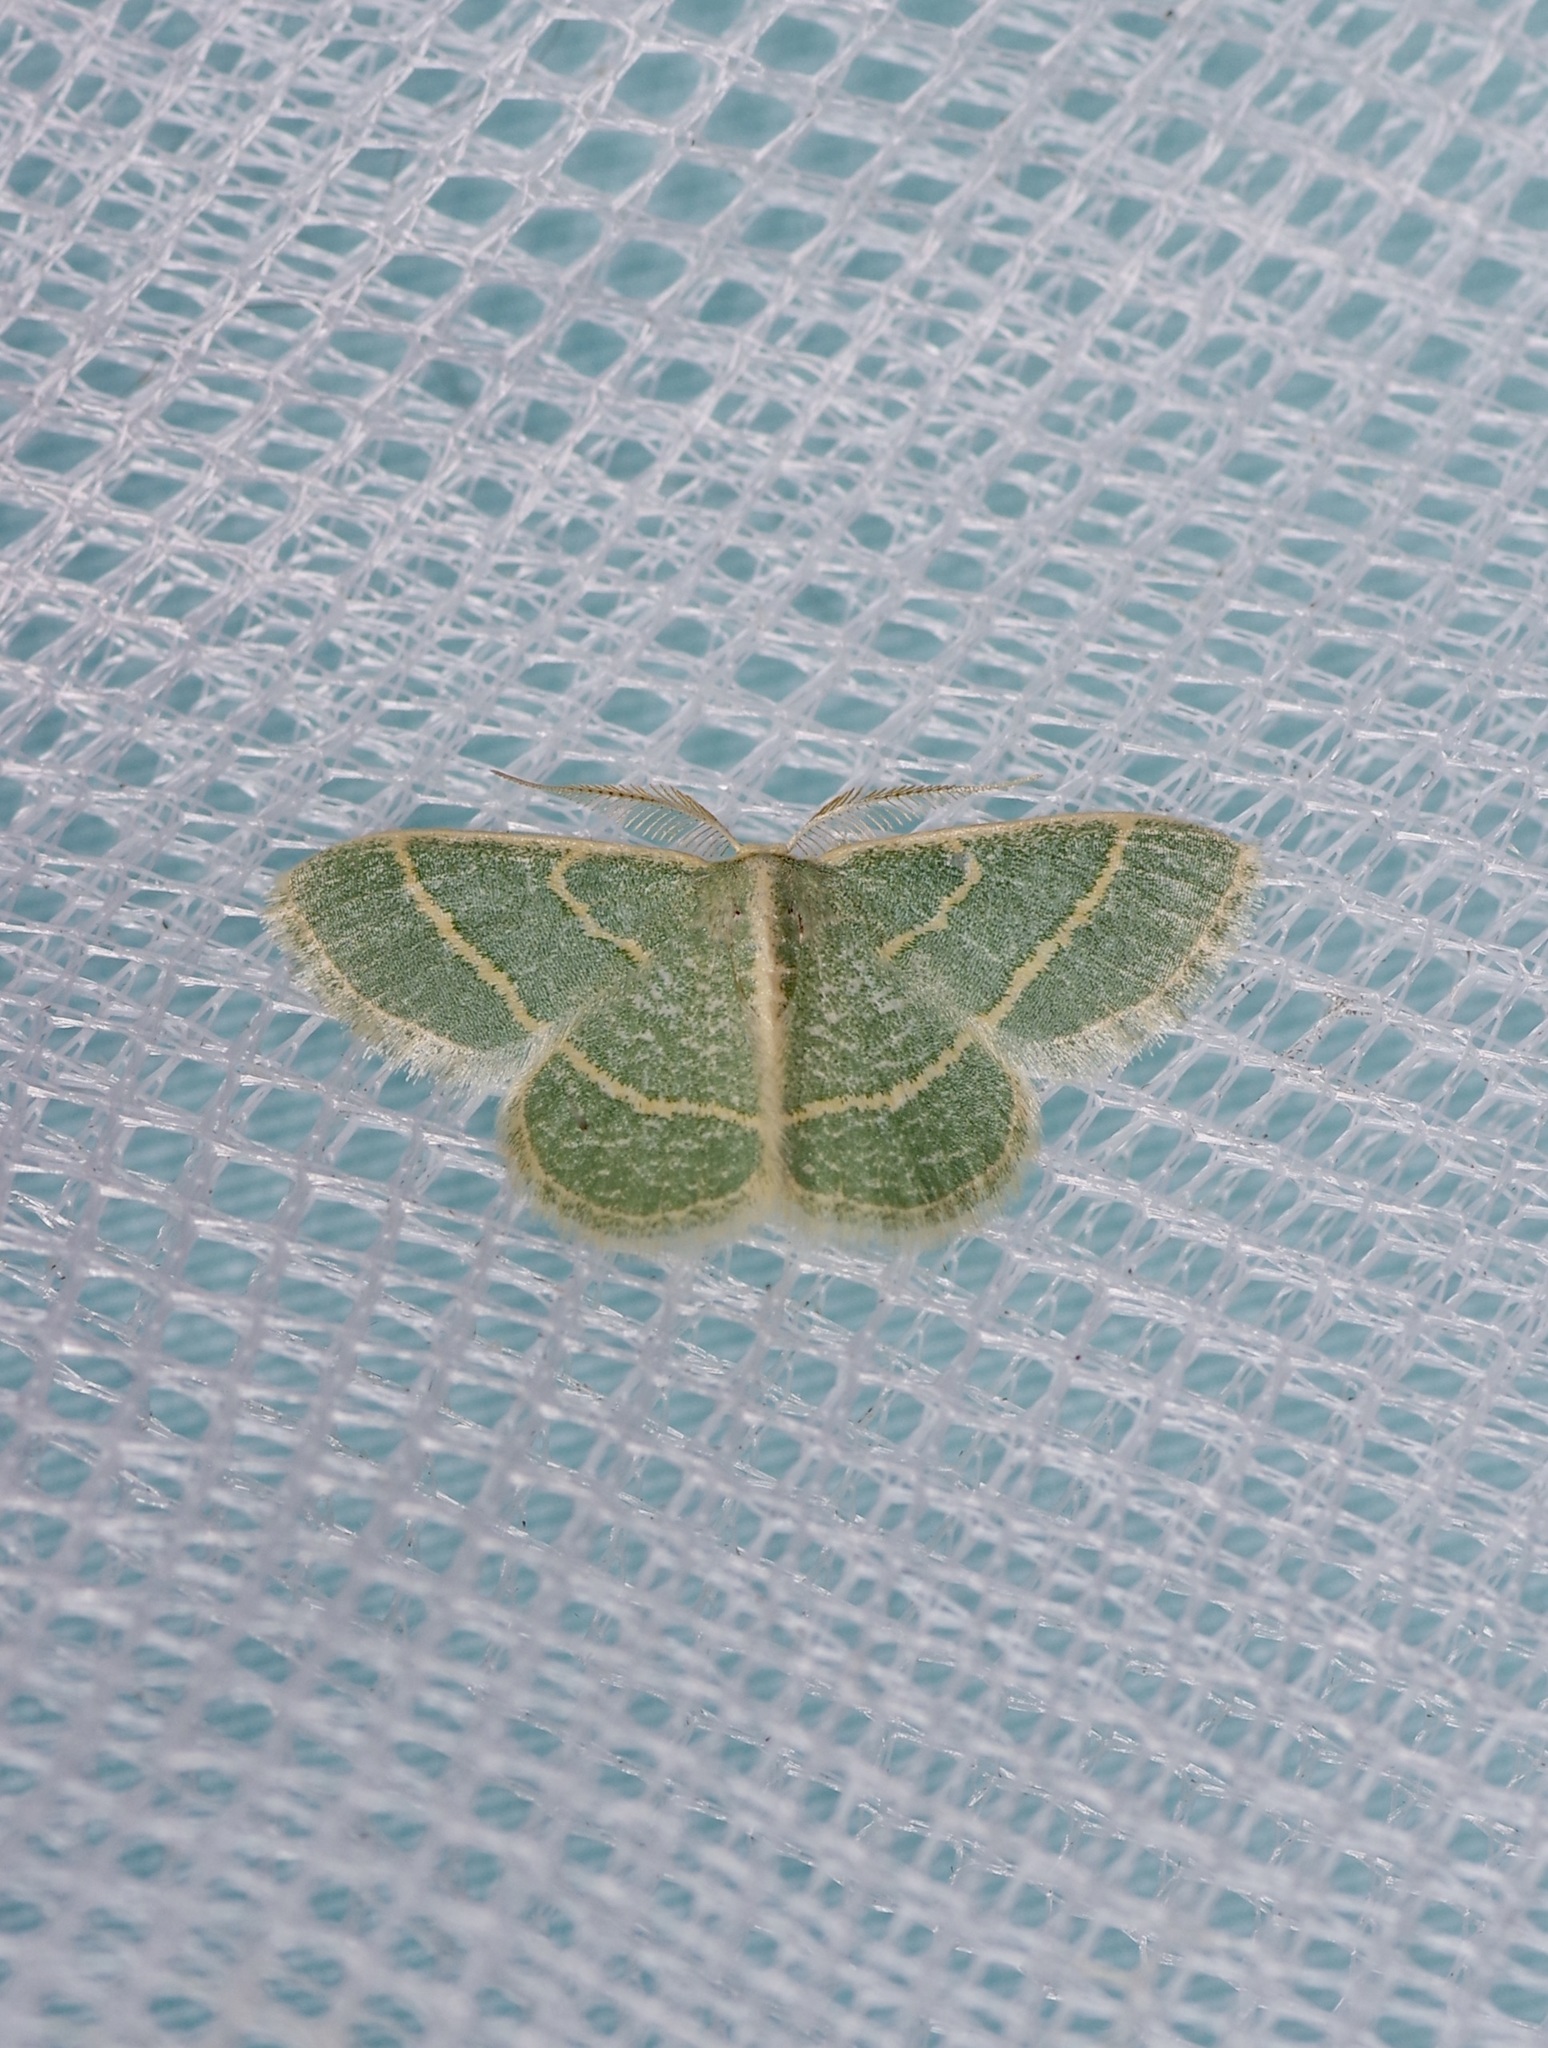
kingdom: Animalia
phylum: Arthropoda
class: Insecta
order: Lepidoptera
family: Geometridae
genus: Chlorochlamys
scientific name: Chlorochlamys chloroleucaria
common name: Blackberry looper
